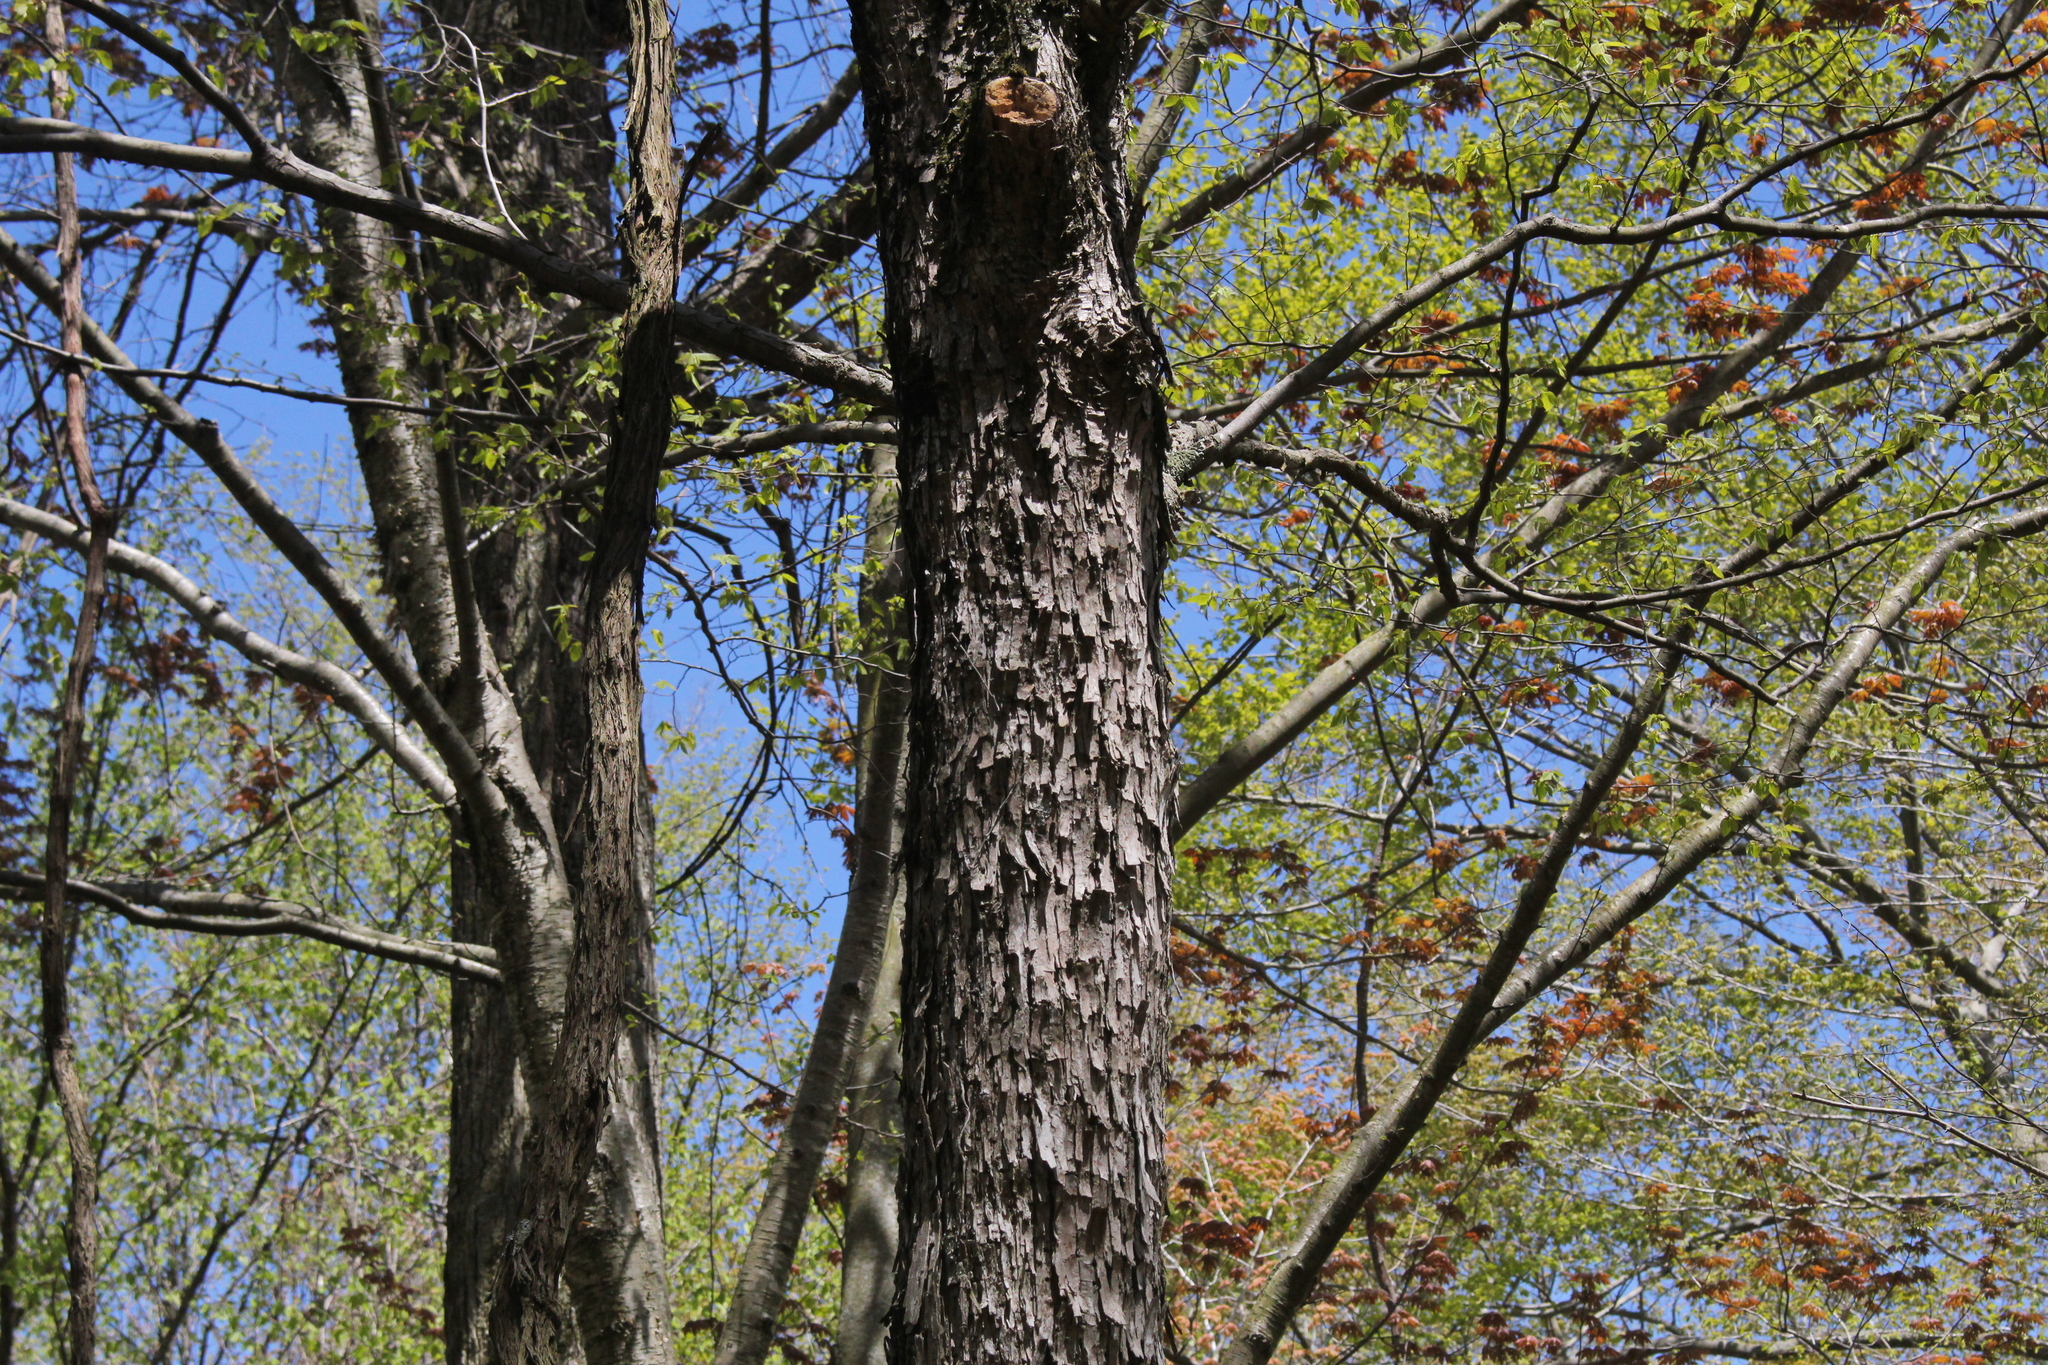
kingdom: Plantae
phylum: Tracheophyta
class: Magnoliopsida
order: Fagales
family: Betulaceae
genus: Ostrya
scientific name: Ostrya virginiana
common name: Ironwood
